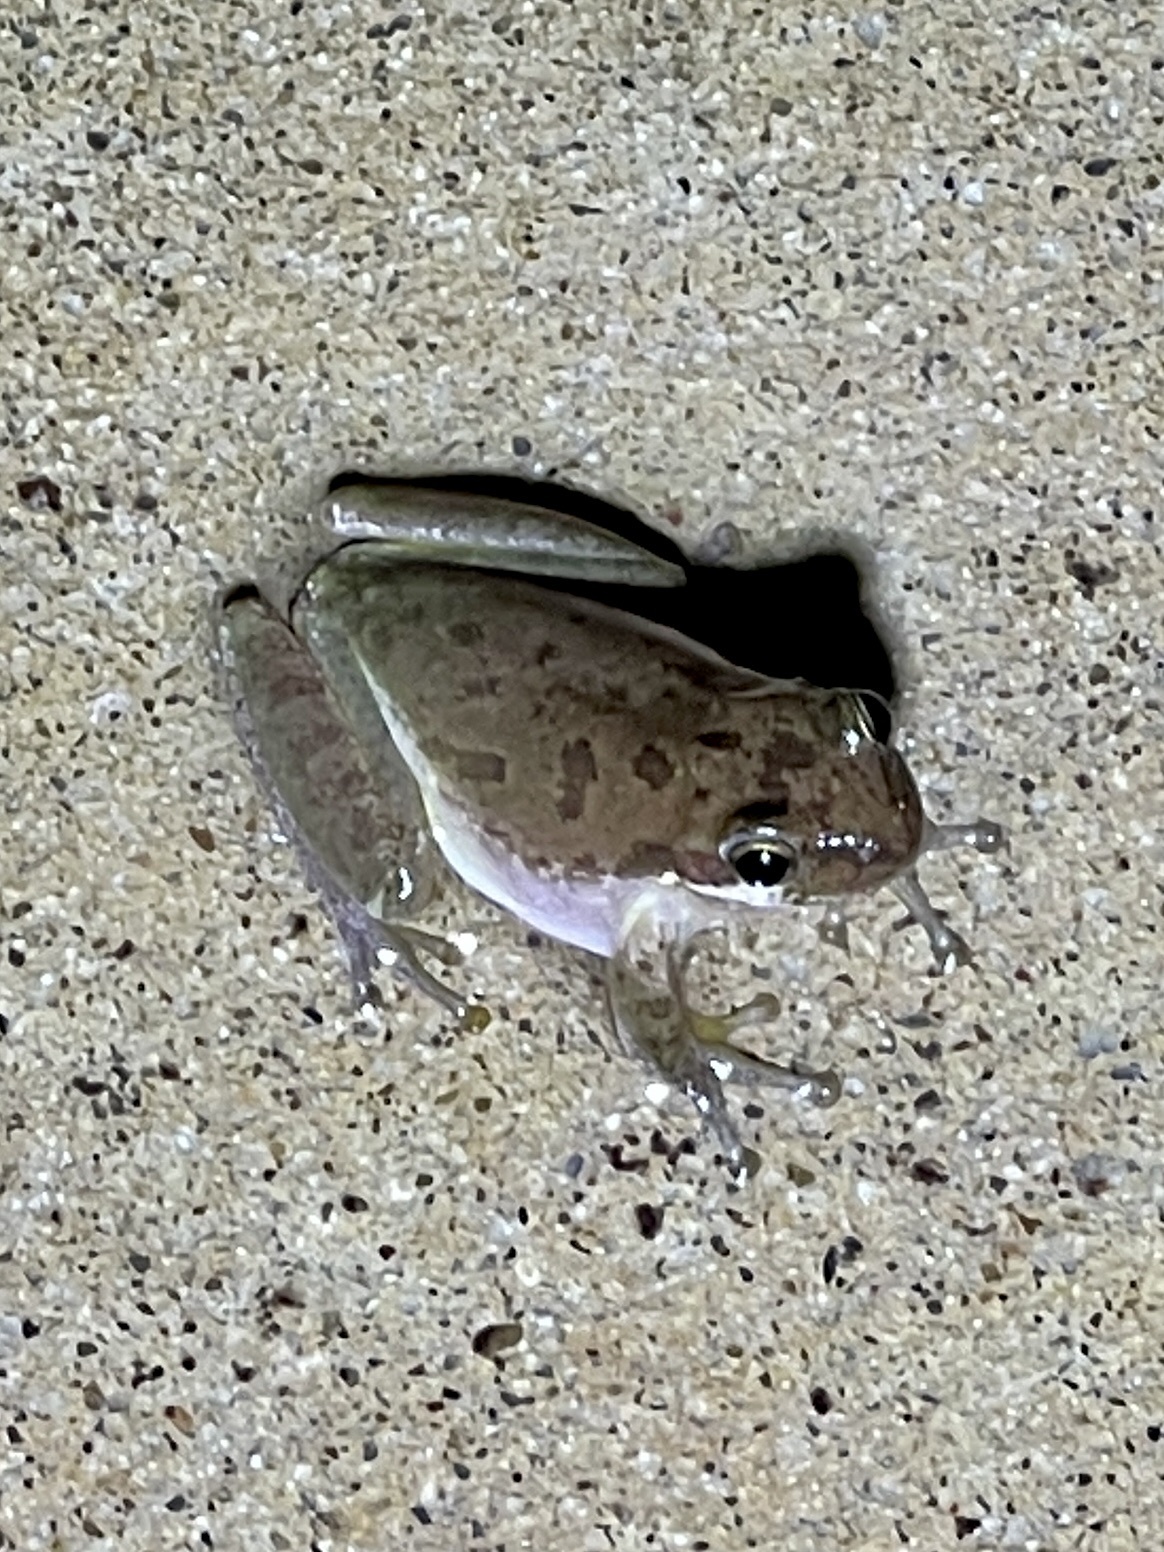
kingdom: Animalia
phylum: Chordata
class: Amphibia
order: Anura
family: Hylidae
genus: Dryophytes
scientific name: Dryophytes squirellus
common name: Squirrel treefrog
